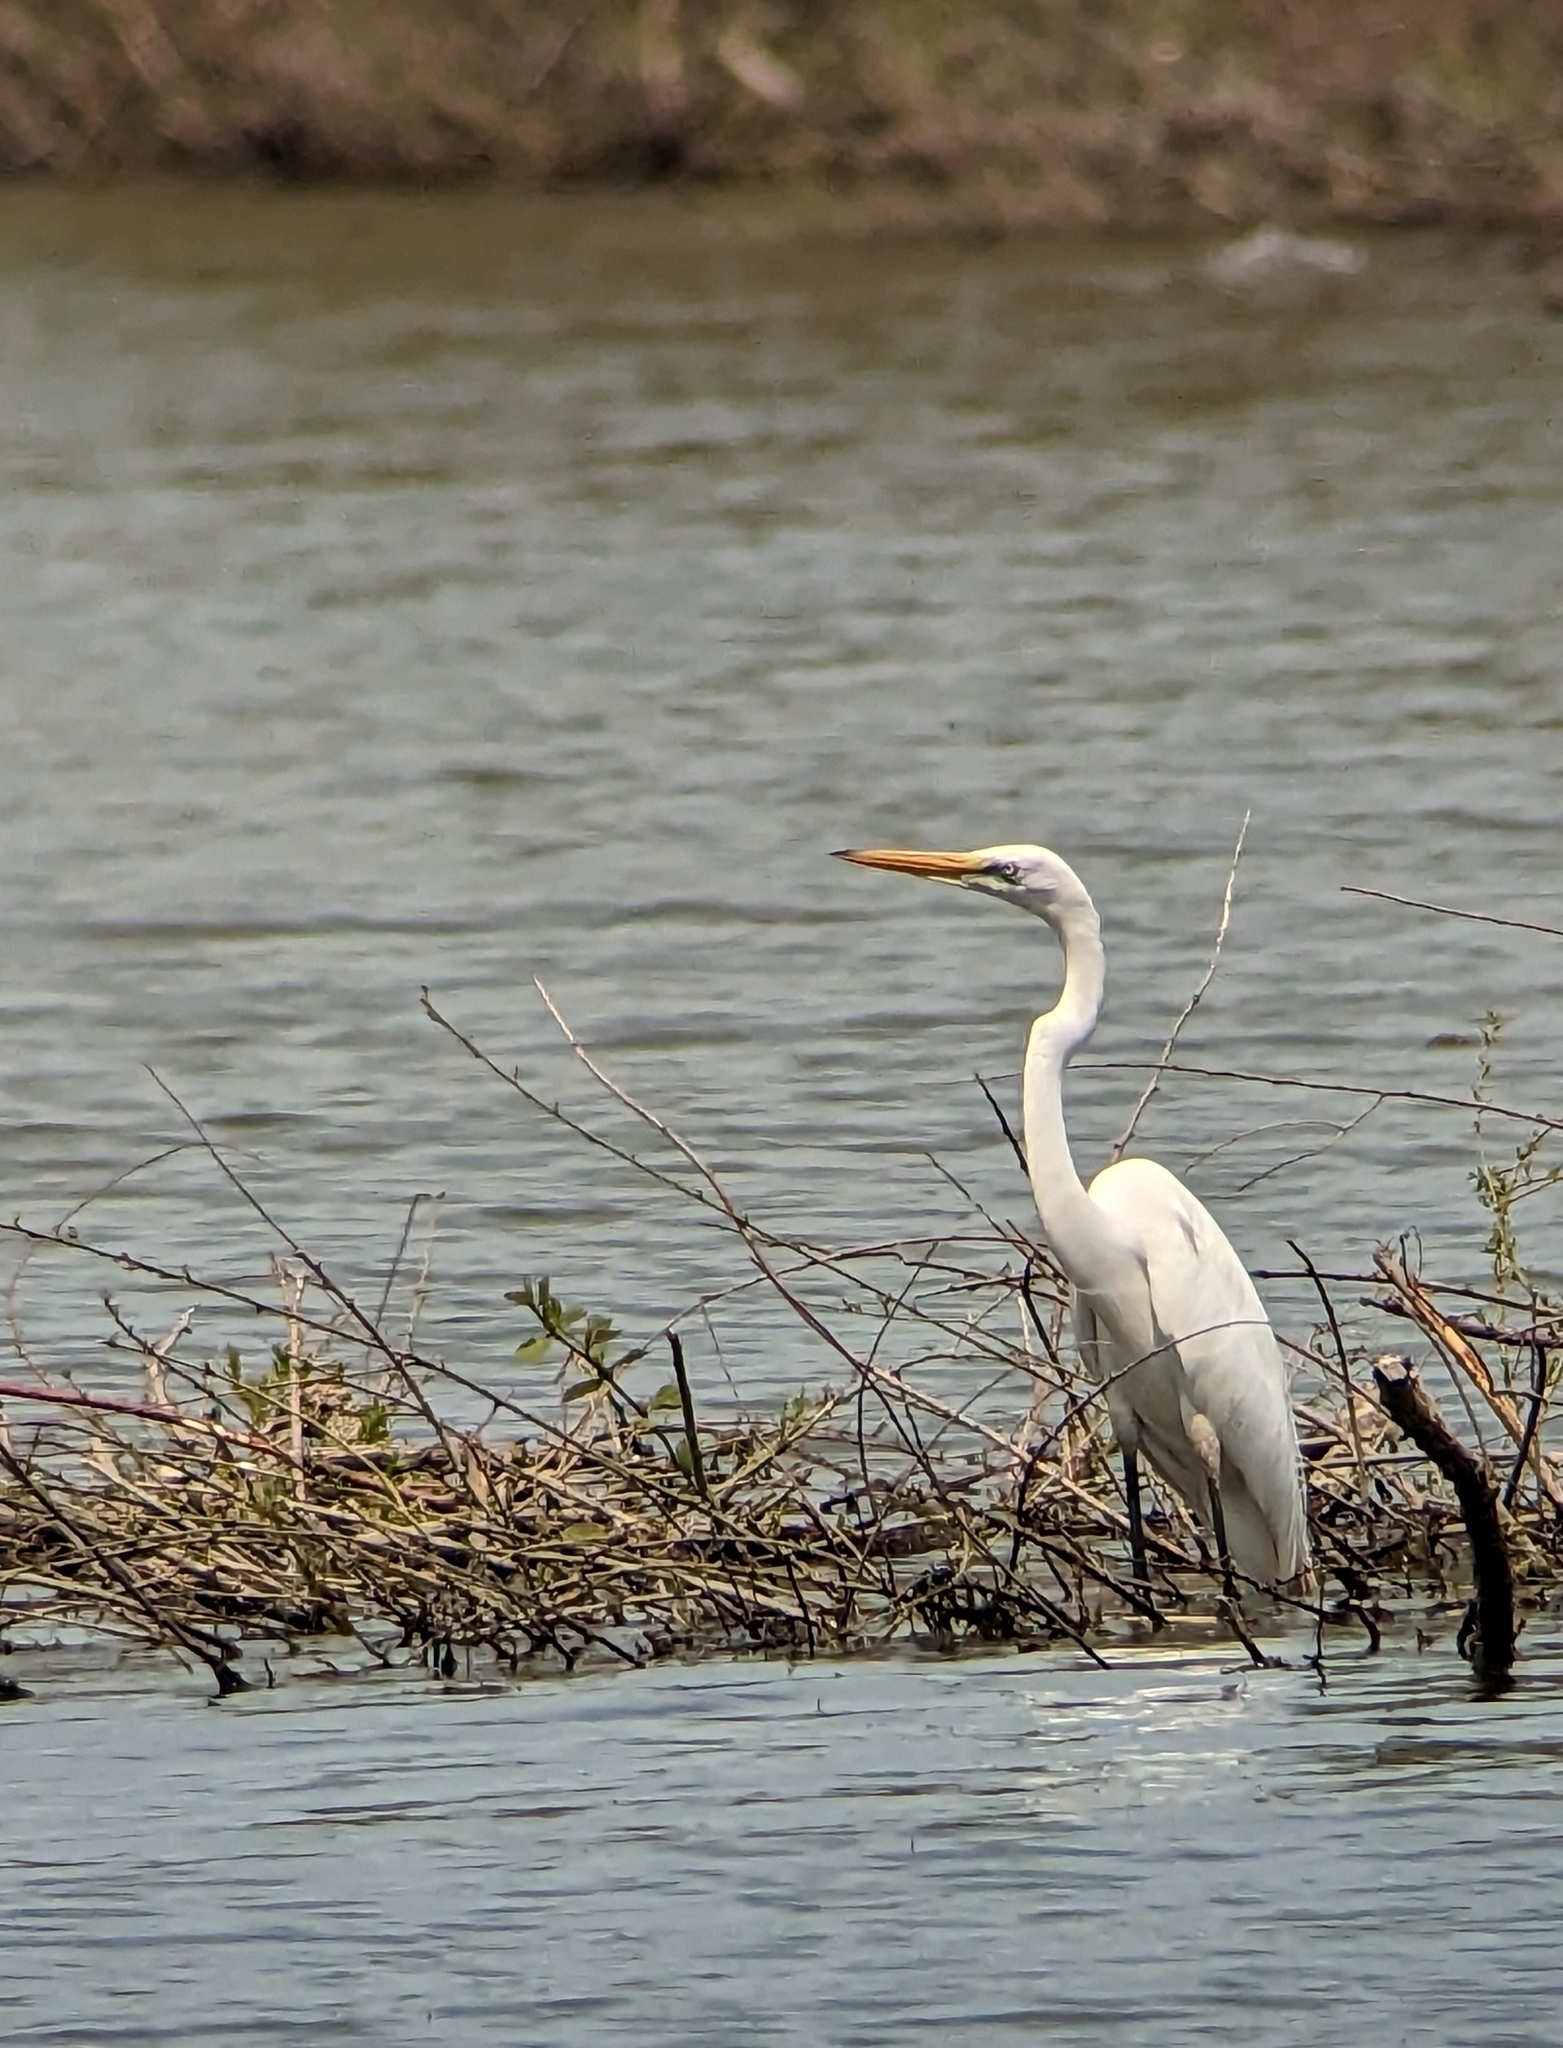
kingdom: Animalia
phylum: Chordata
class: Aves
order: Pelecaniformes
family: Ardeidae
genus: Ardea
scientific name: Ardea alba
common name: Great egret
